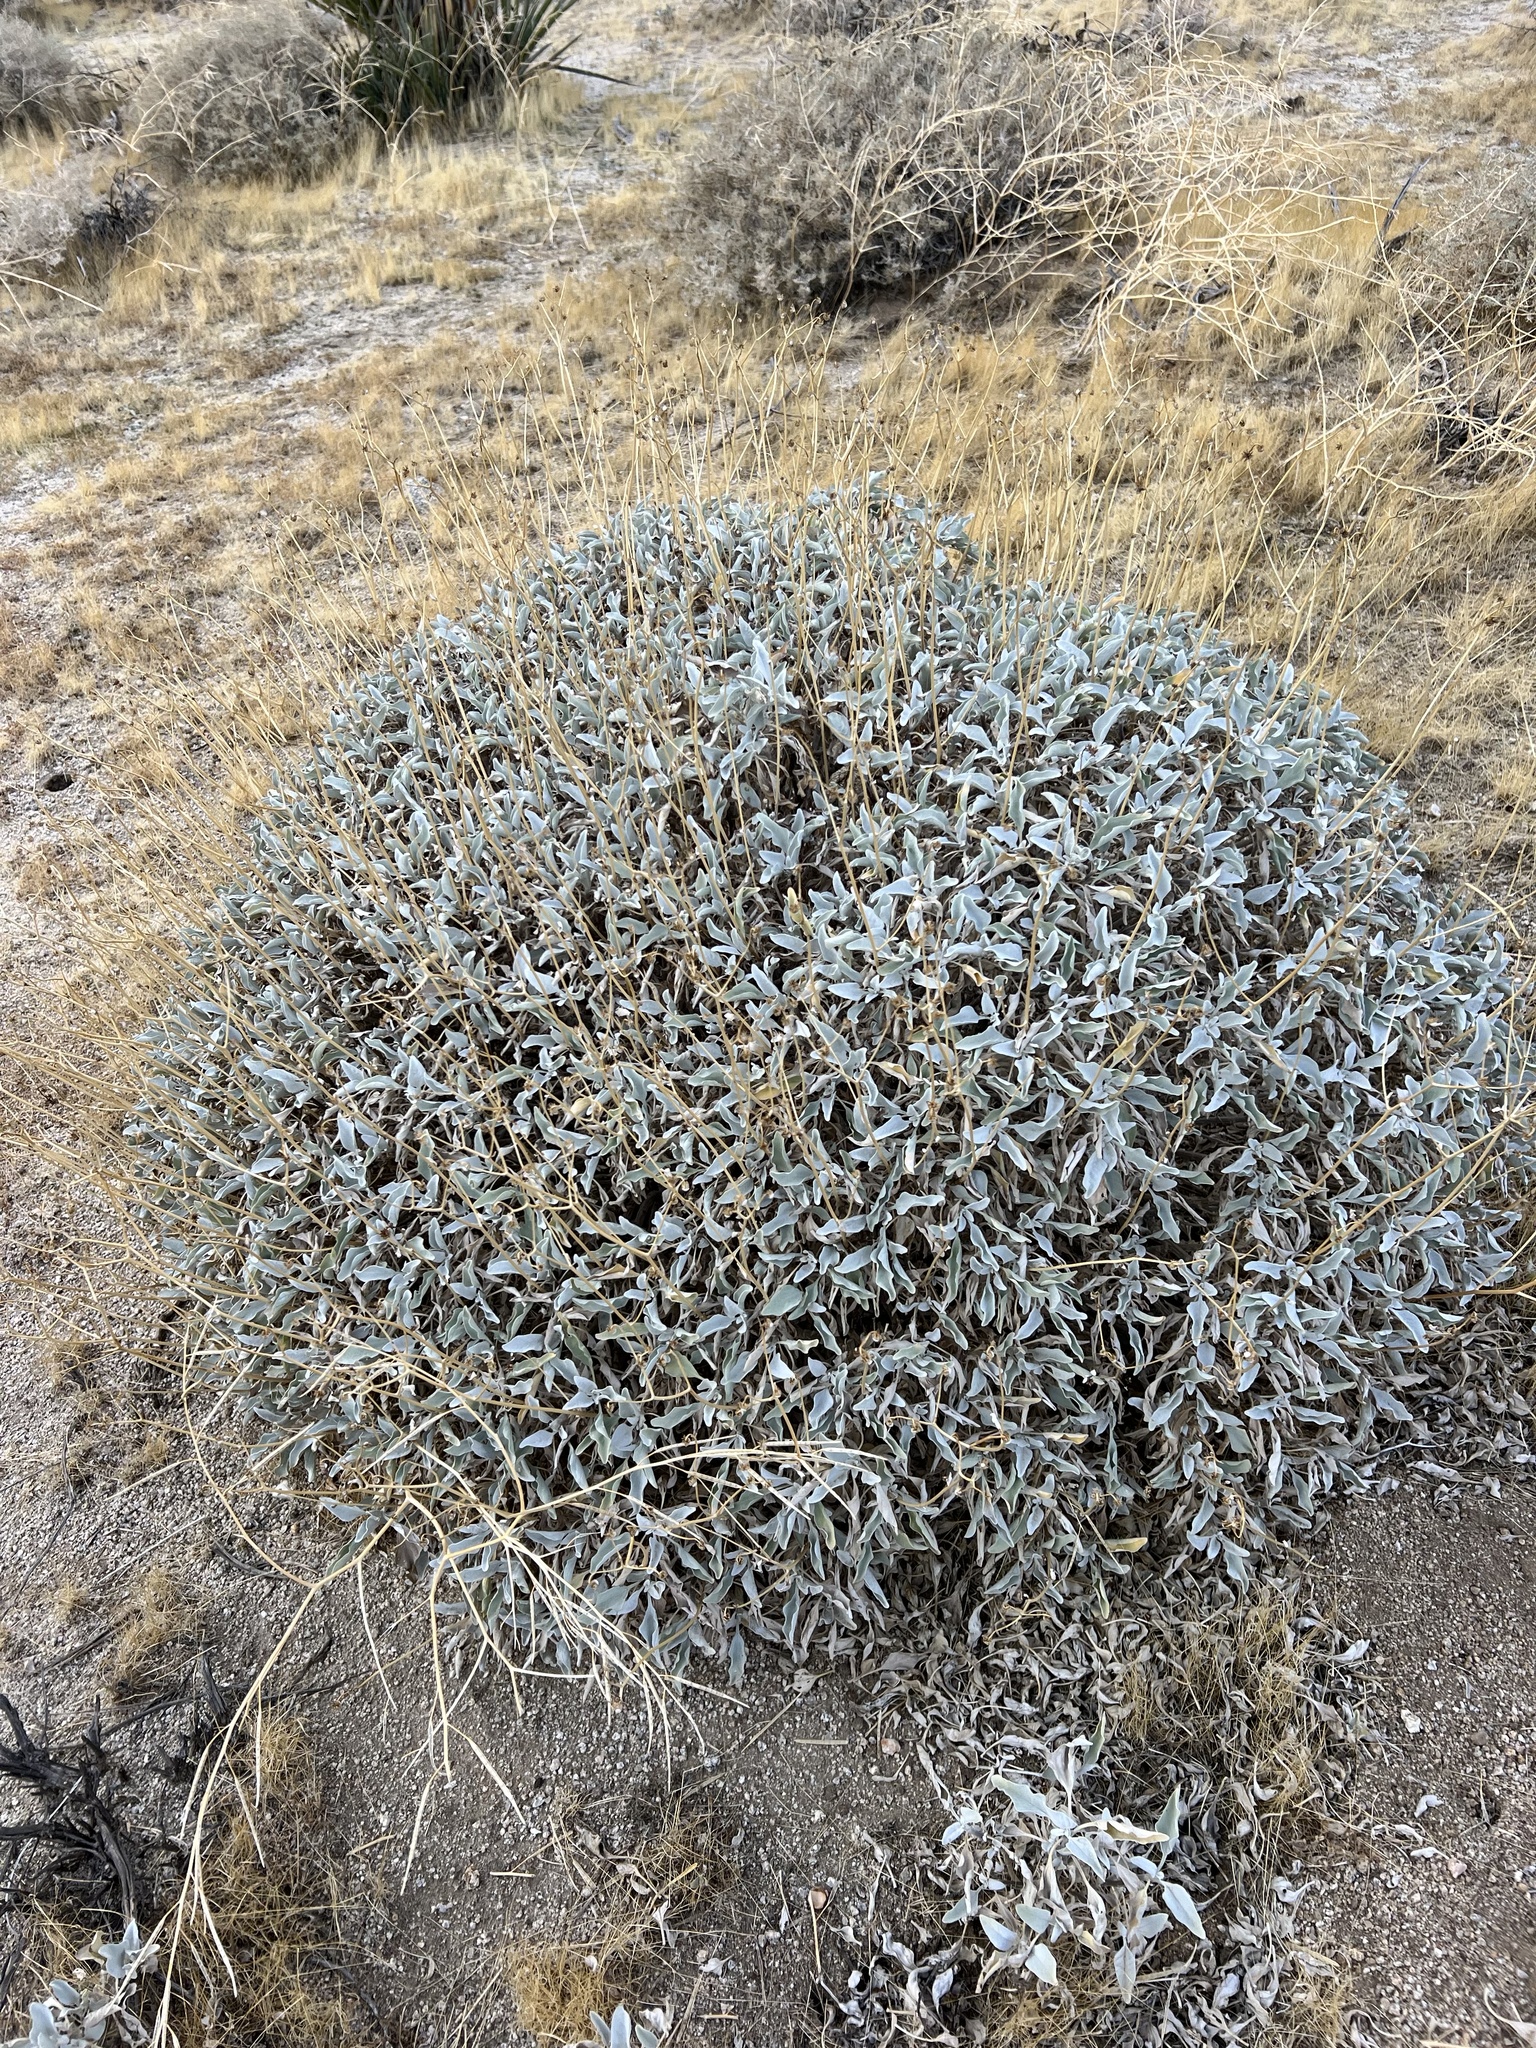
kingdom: Plantae
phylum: Tracheophyta
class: Magnoliopsida
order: Asterales
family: Asteraceae
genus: Encelia
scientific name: Encelia farinosa
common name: Brittlebush
